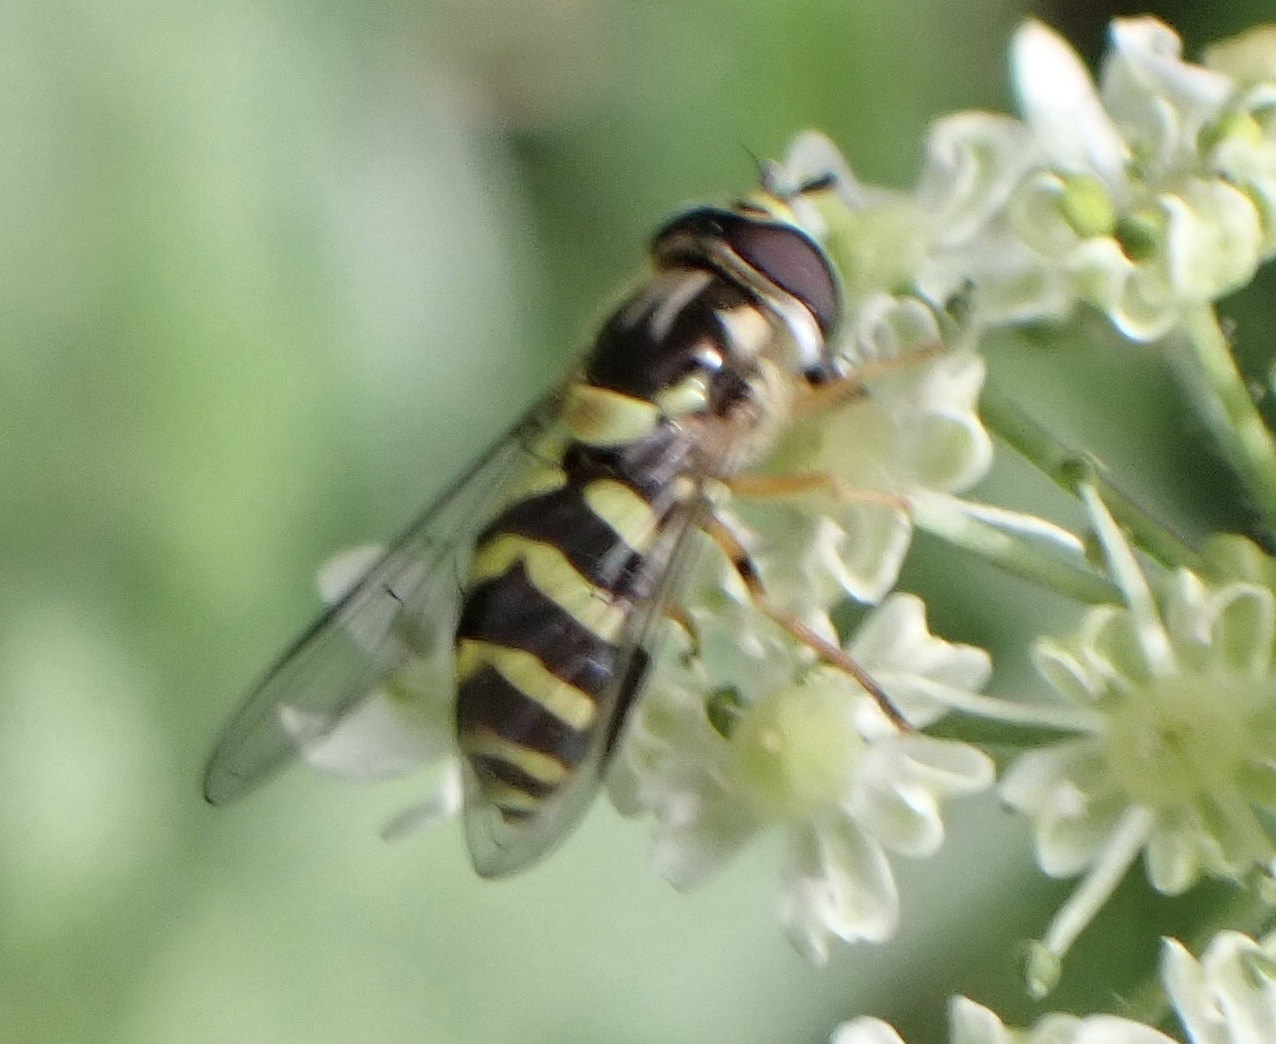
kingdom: Animalia
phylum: Arthropoda
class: Insecta
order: Diptera
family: Syrphidae
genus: Dasysyrphus
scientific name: Dasysyrphus albostriatus
